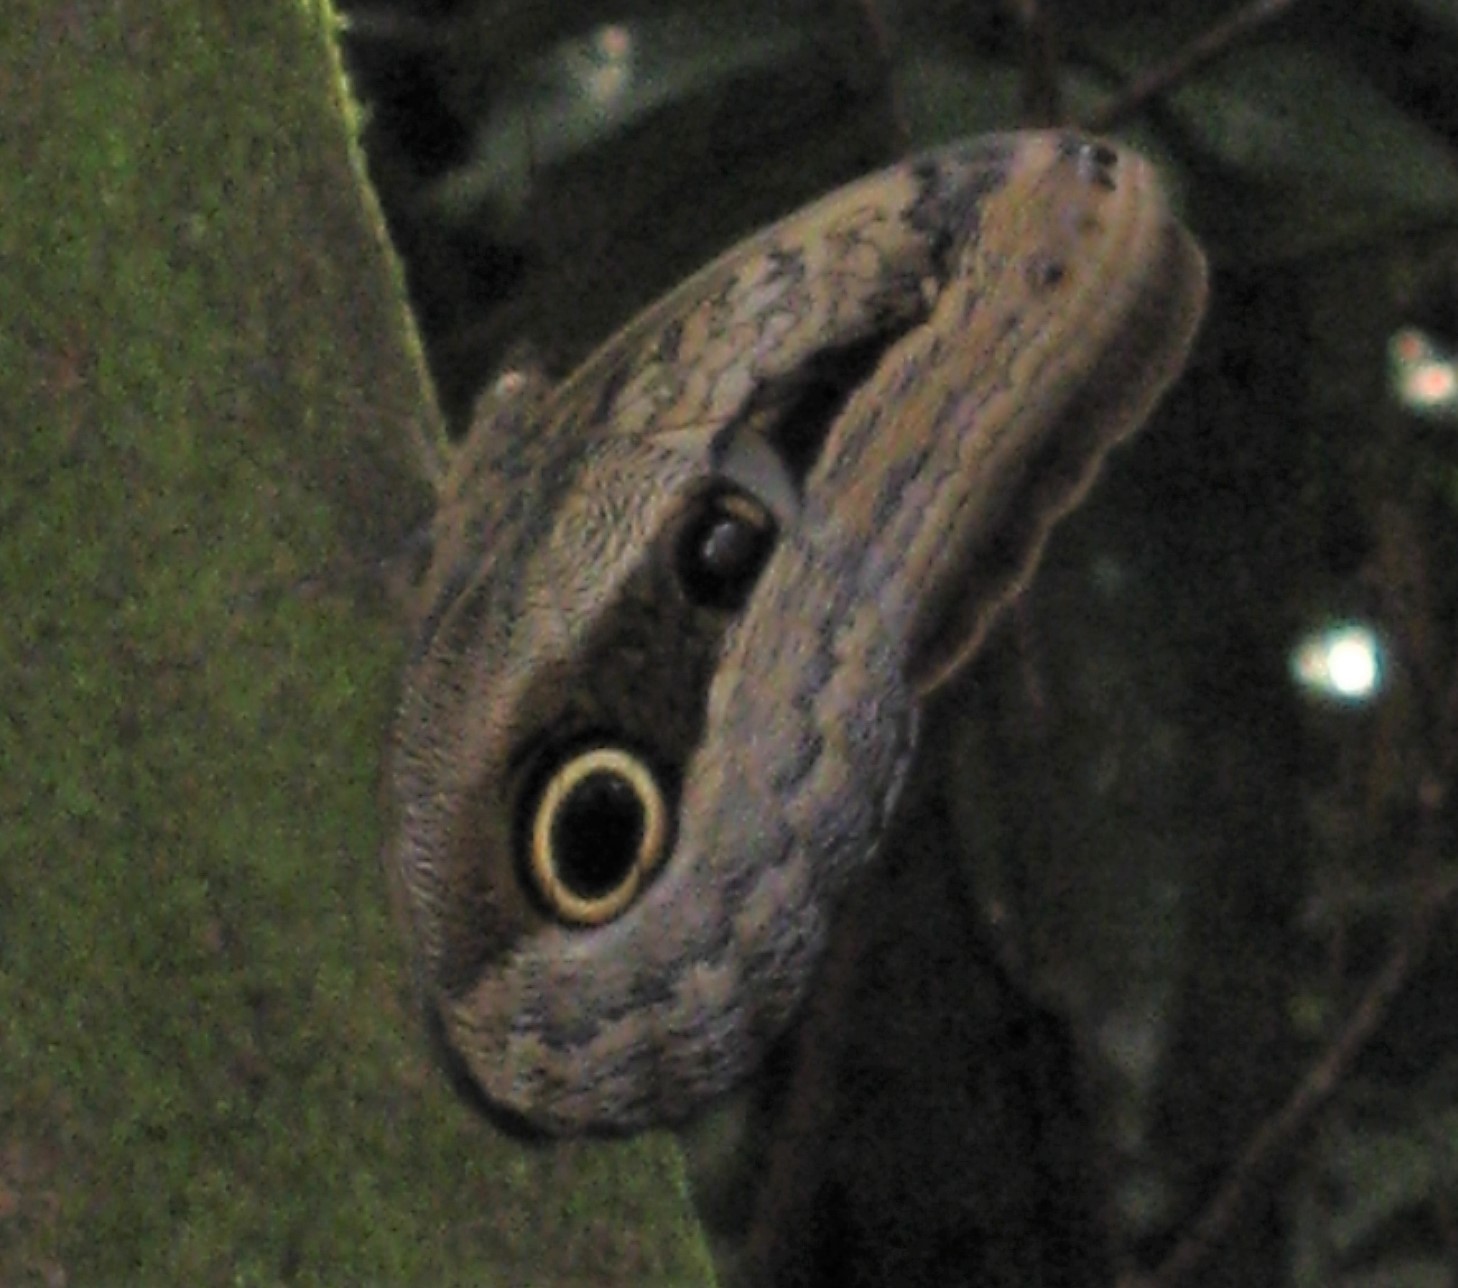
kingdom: Animalia
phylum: Arthropoda
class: Insecta
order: Lepidoptera
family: Nymphalidae
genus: Caligo
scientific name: Caligo placidianus
